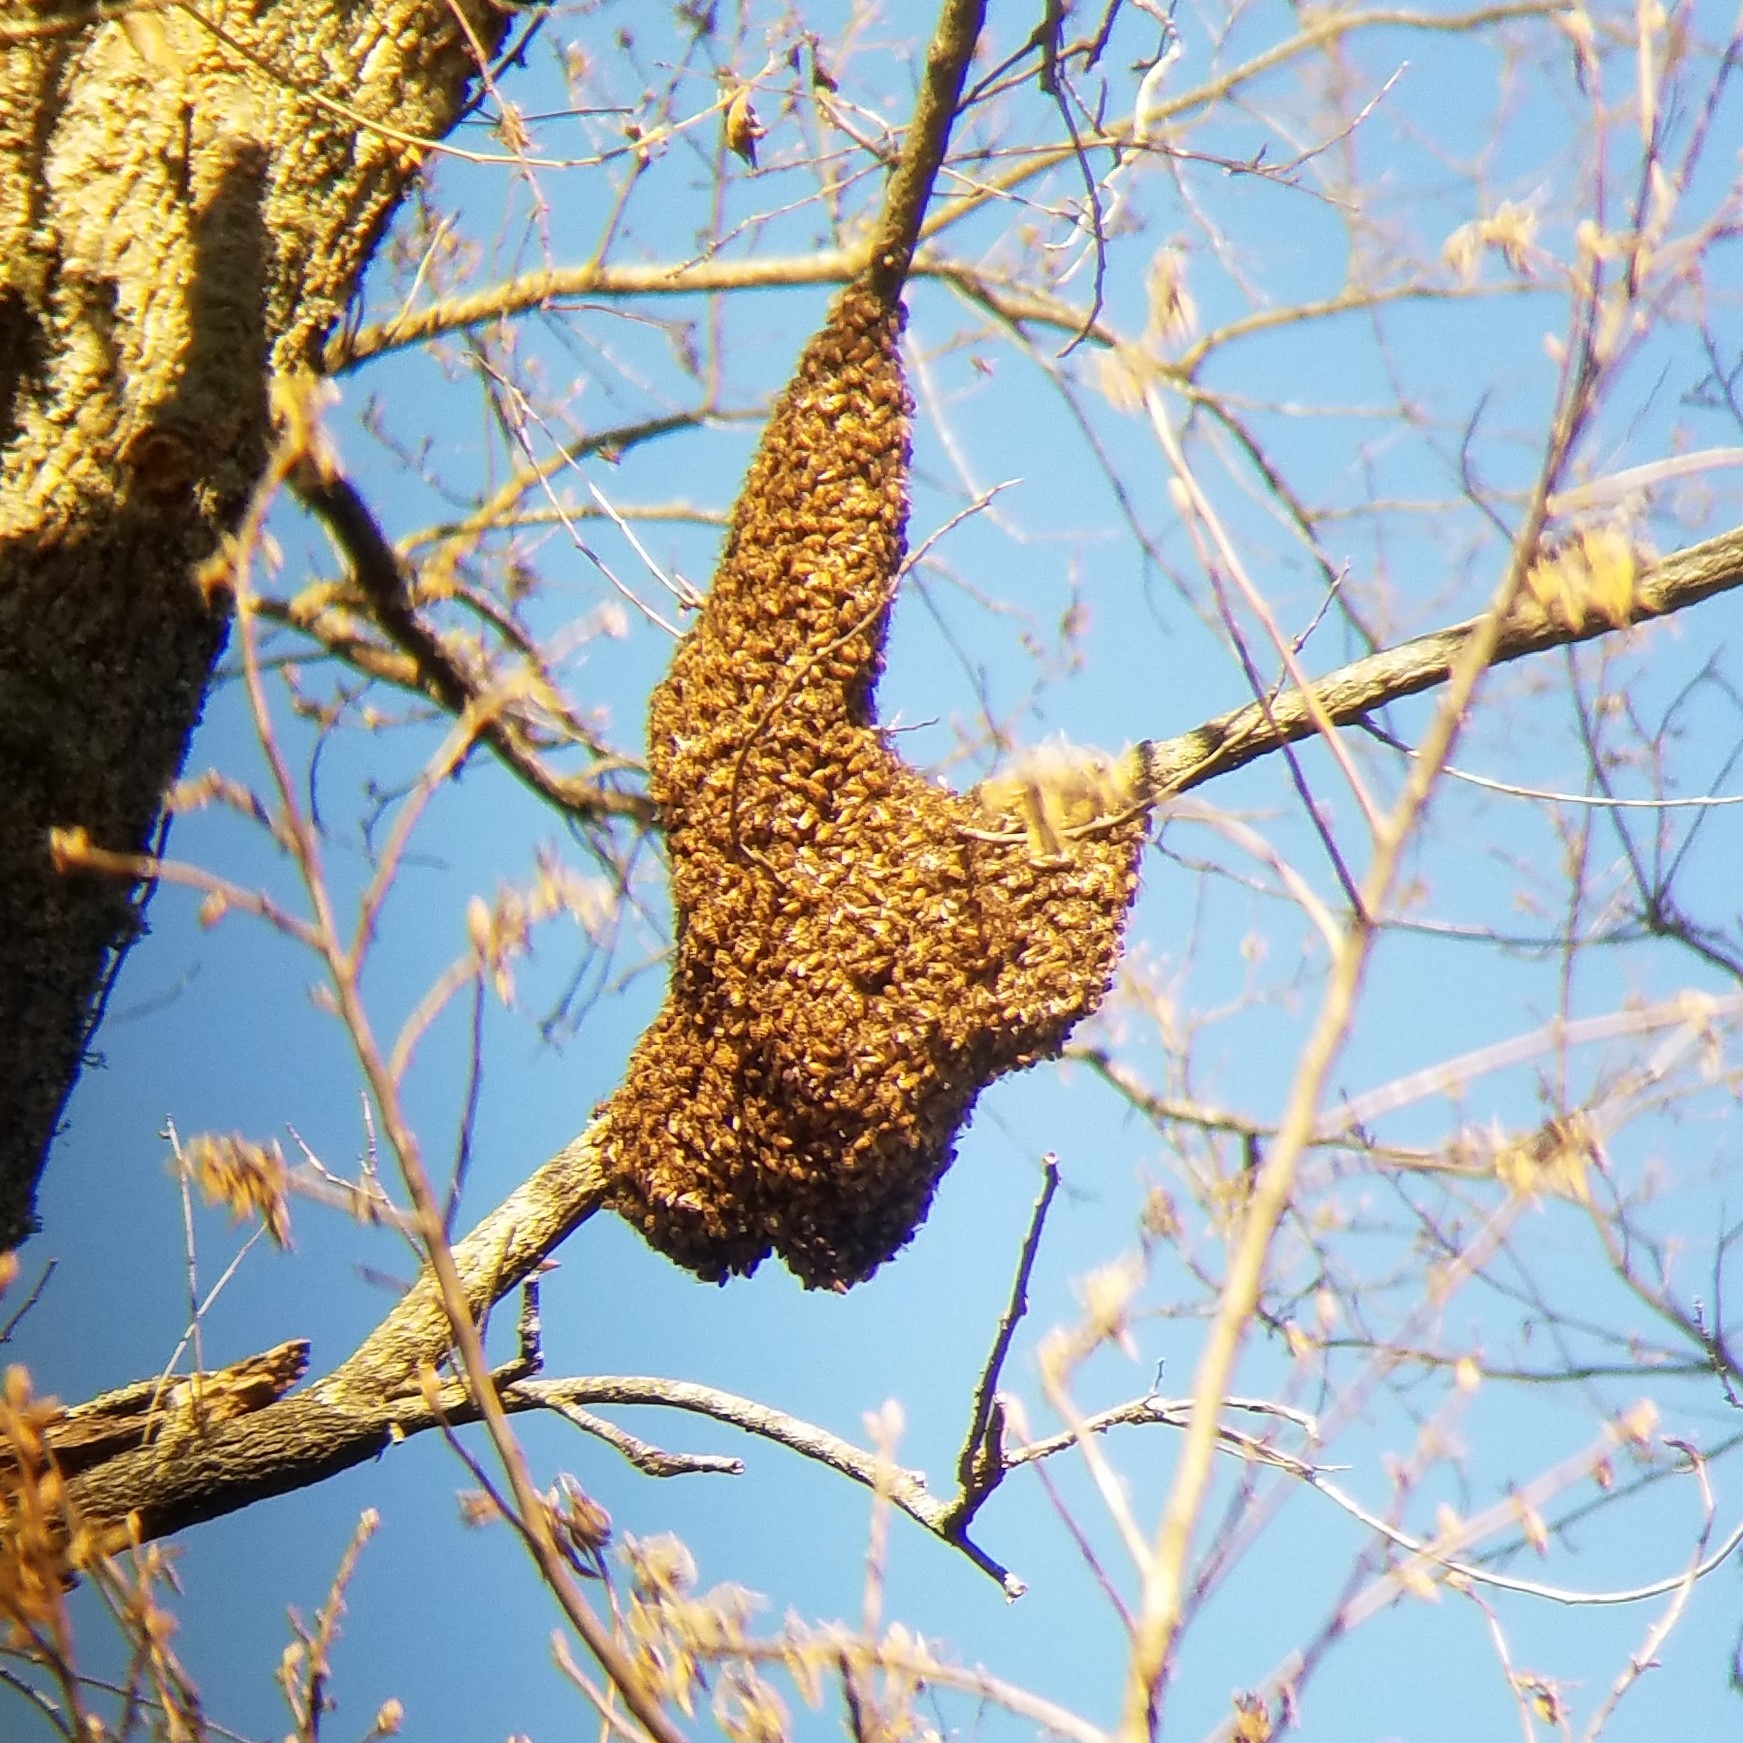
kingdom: Animalia
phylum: Arthropoda
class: Insecta
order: Hymenoptera
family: Apidae
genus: Apis
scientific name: Apis mellifera
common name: Honey bee
